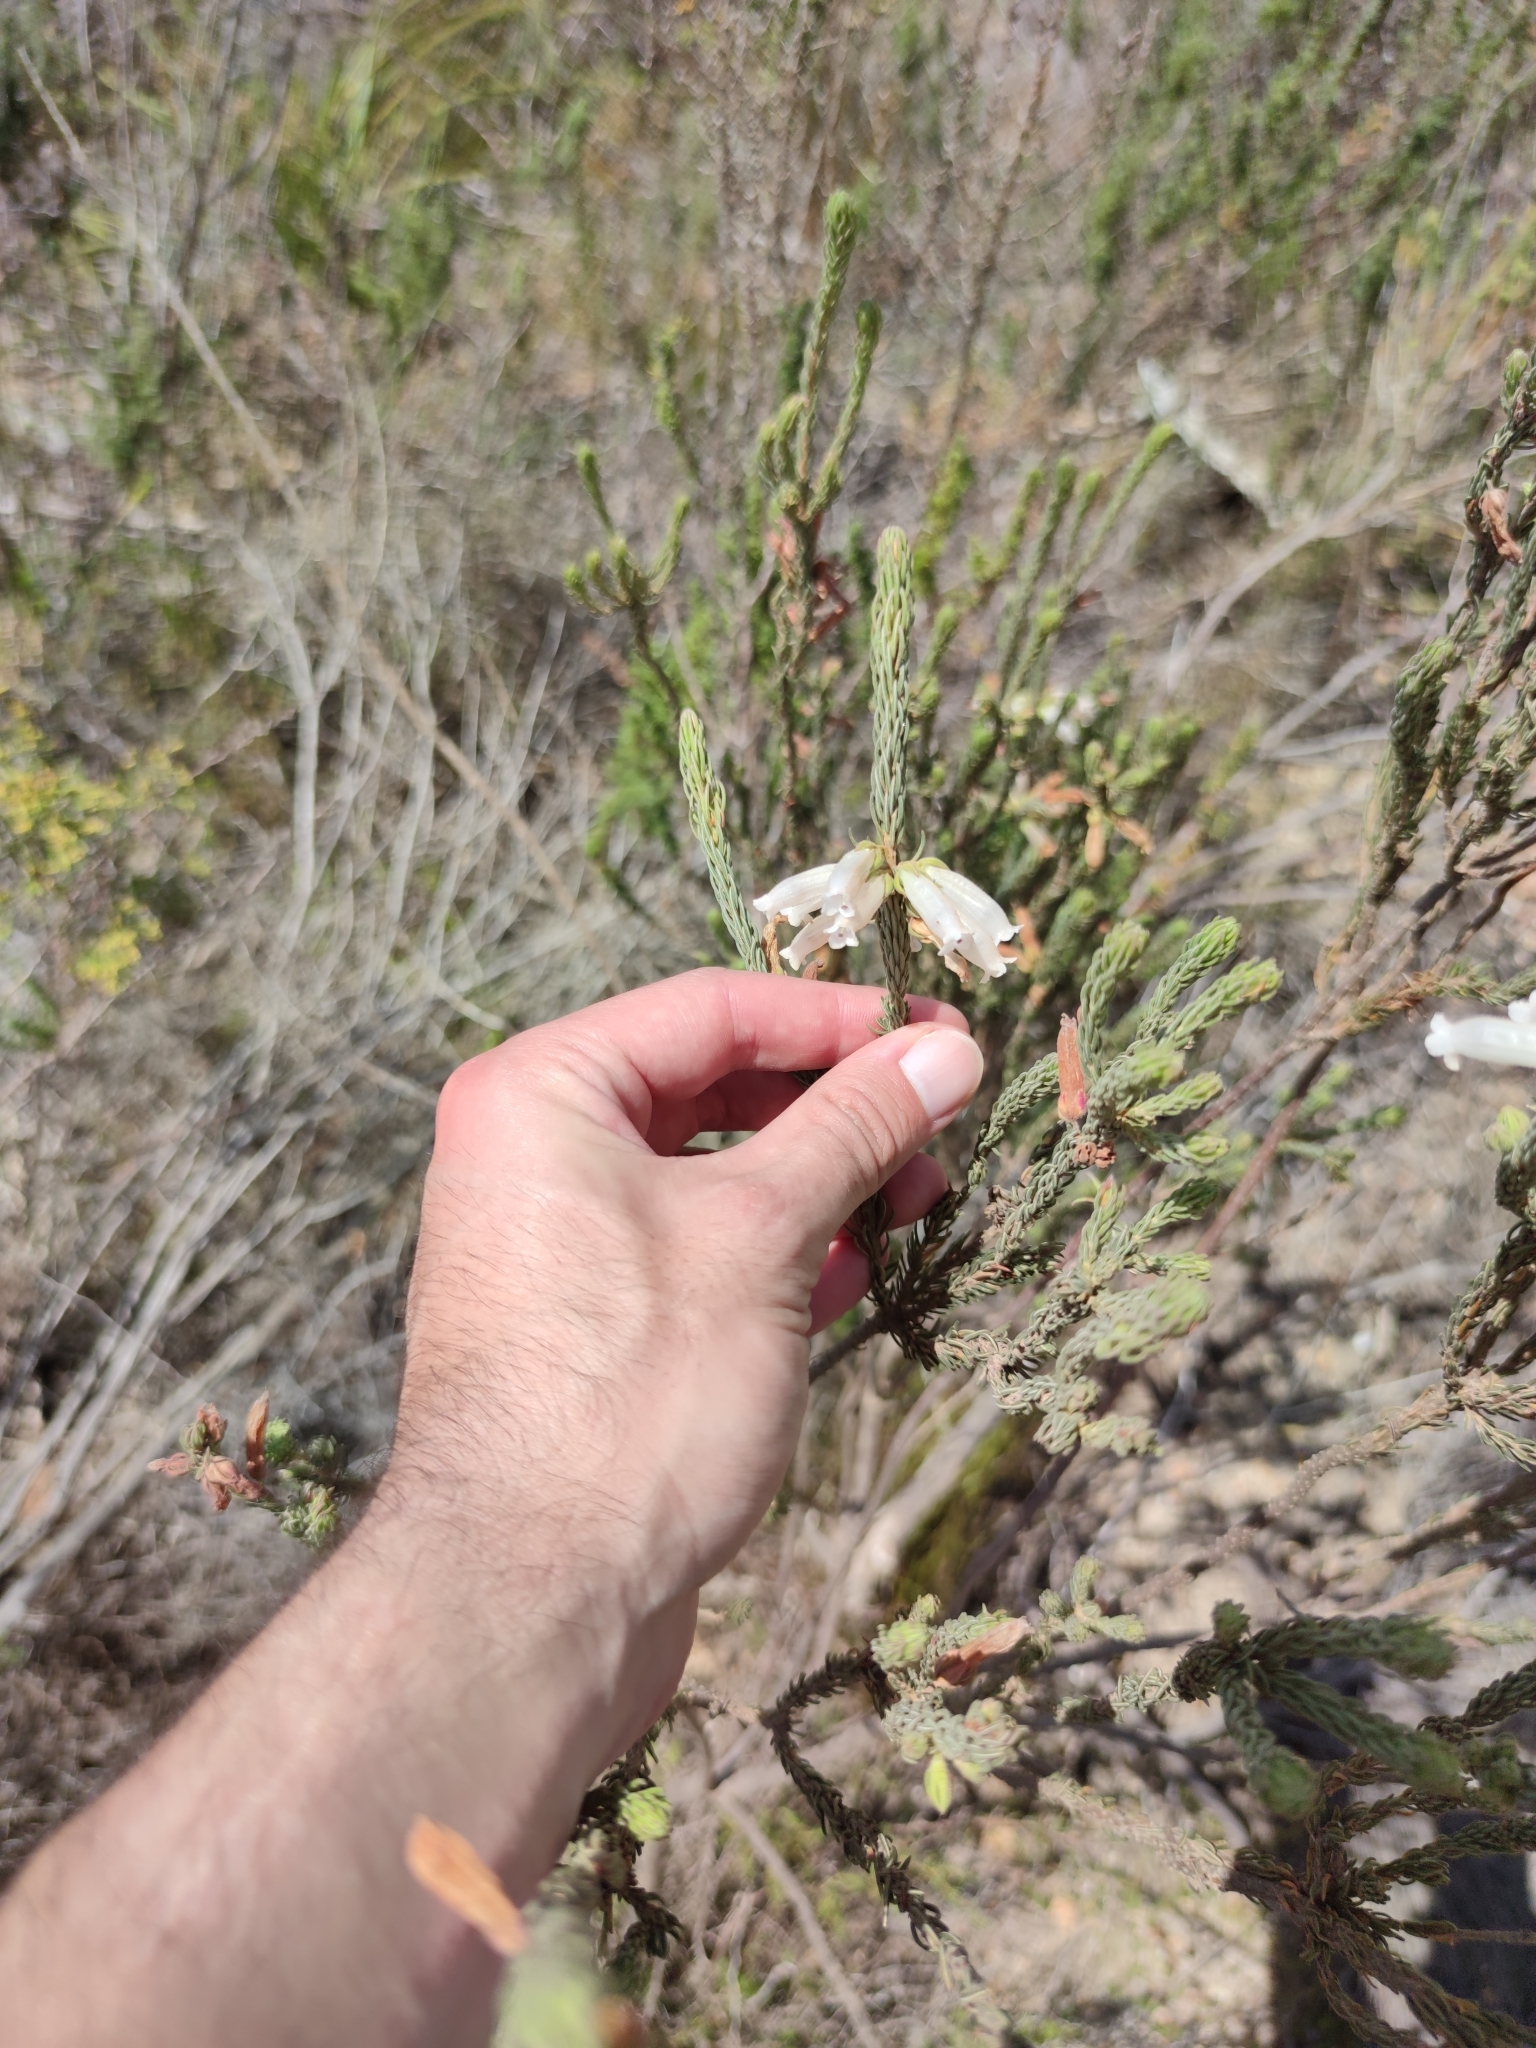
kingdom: Plantae
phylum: Tracheophyta
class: Magnoliopsida
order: Ericales
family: Ericaceae
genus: Erica
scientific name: Erica viscaria
